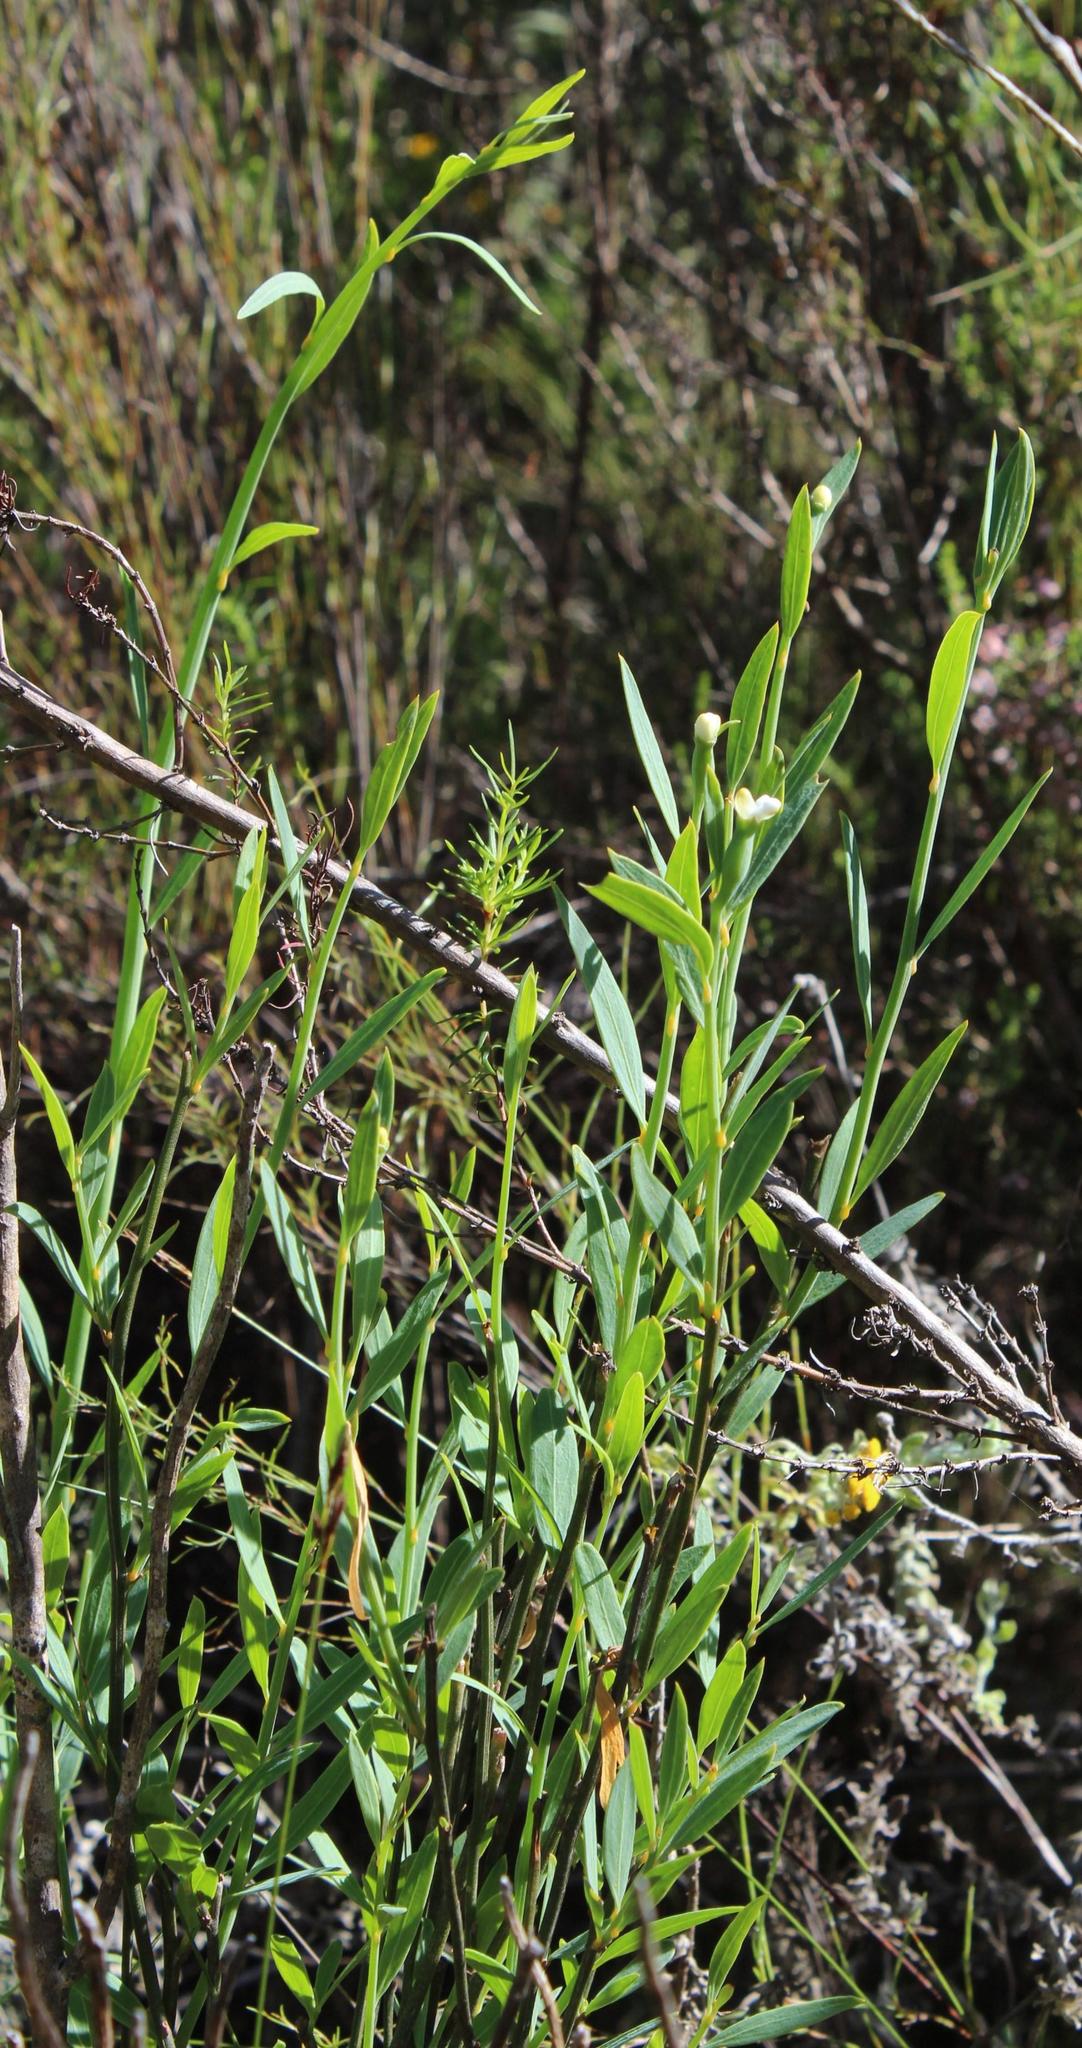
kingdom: Plantae
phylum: Tracheophyta
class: Magnoliopsida
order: Solanales
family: Montiniaceae
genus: Montinia
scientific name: Montinia caryophyllacea
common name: Wild clove-bush
